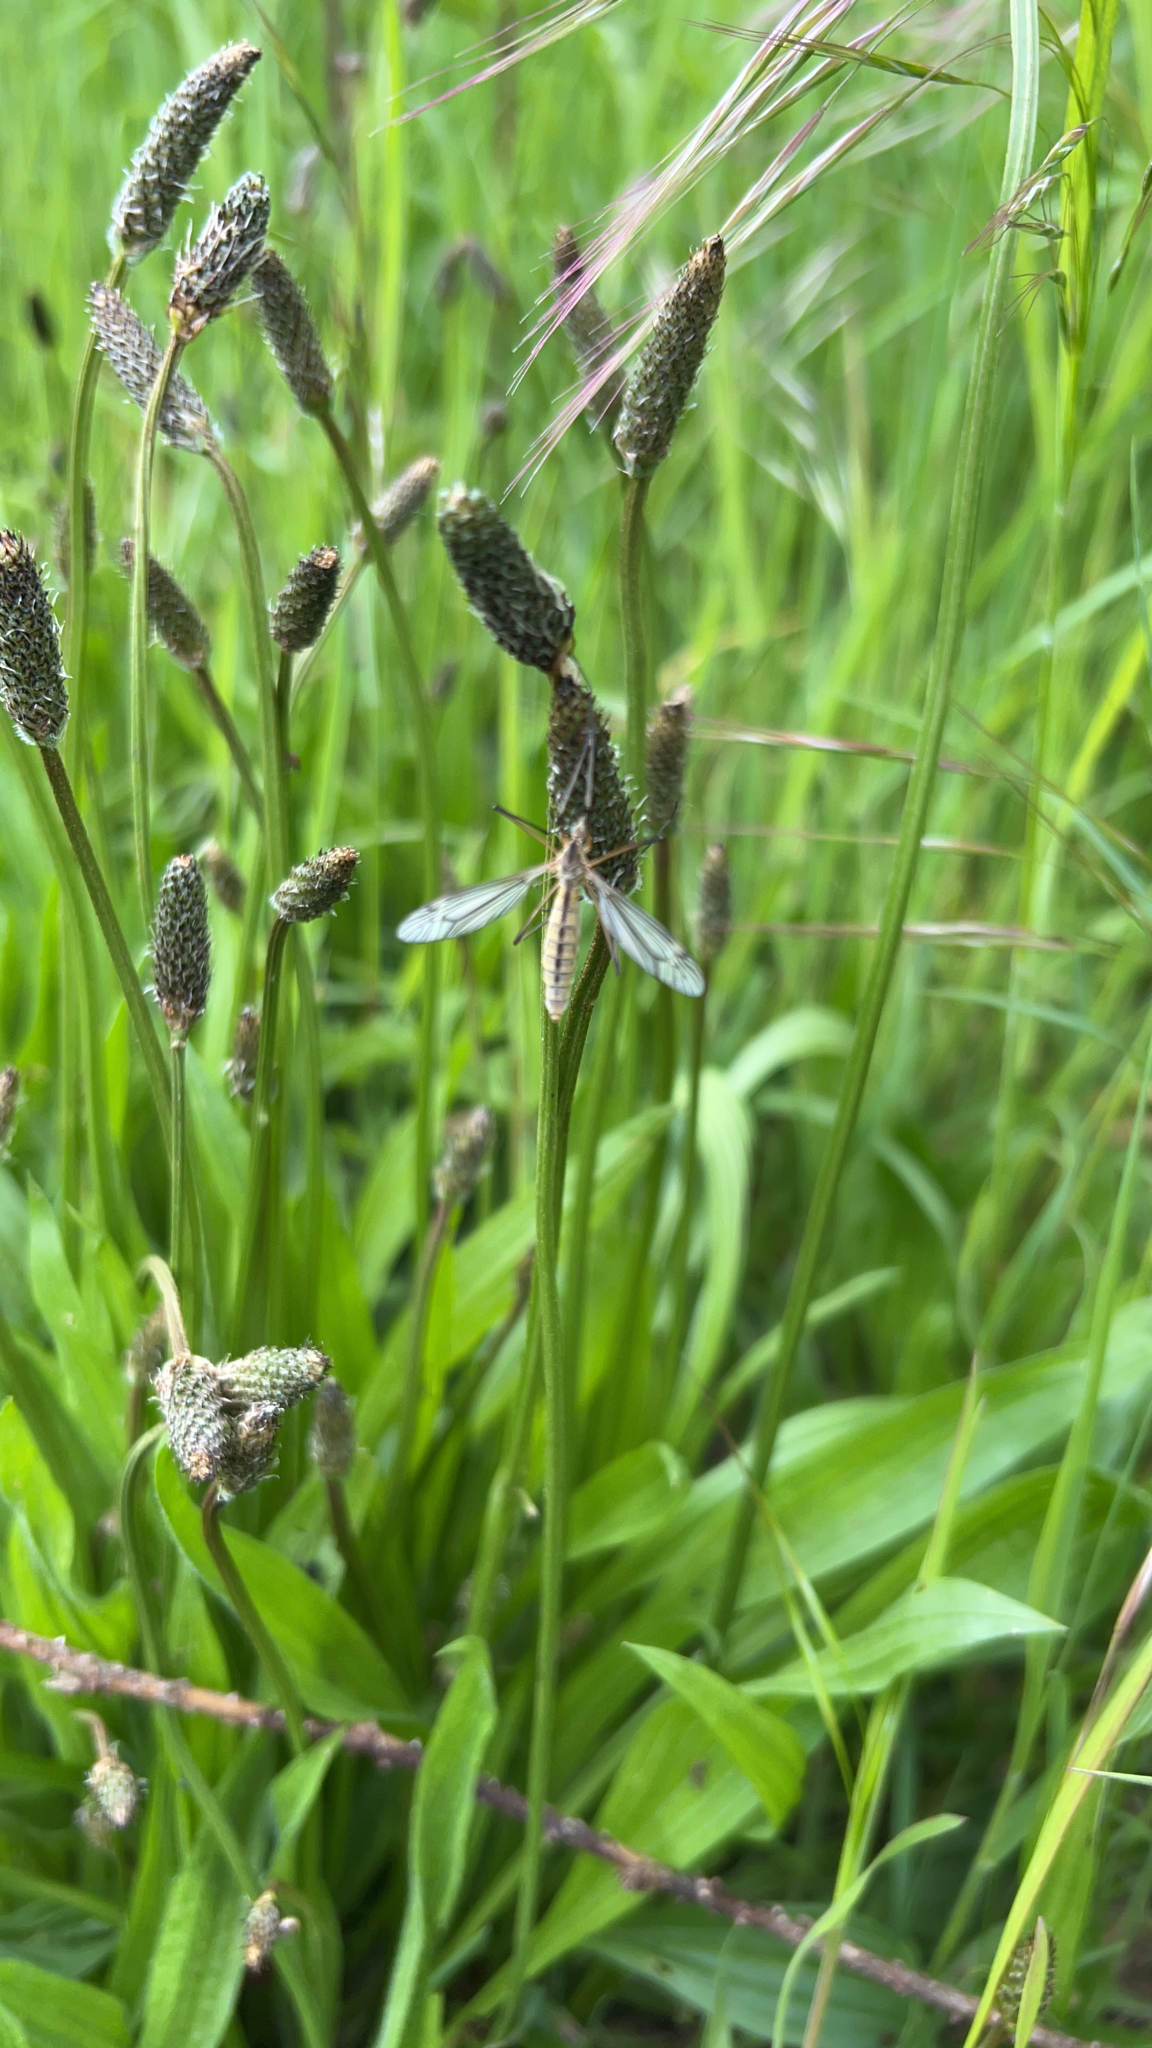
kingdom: Plantae
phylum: Tracheophyta
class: Magnoliopsida
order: Lamiales
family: Plantaginaceae
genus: Plantago
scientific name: Plantago lanceolata
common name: Ribwort plantain
